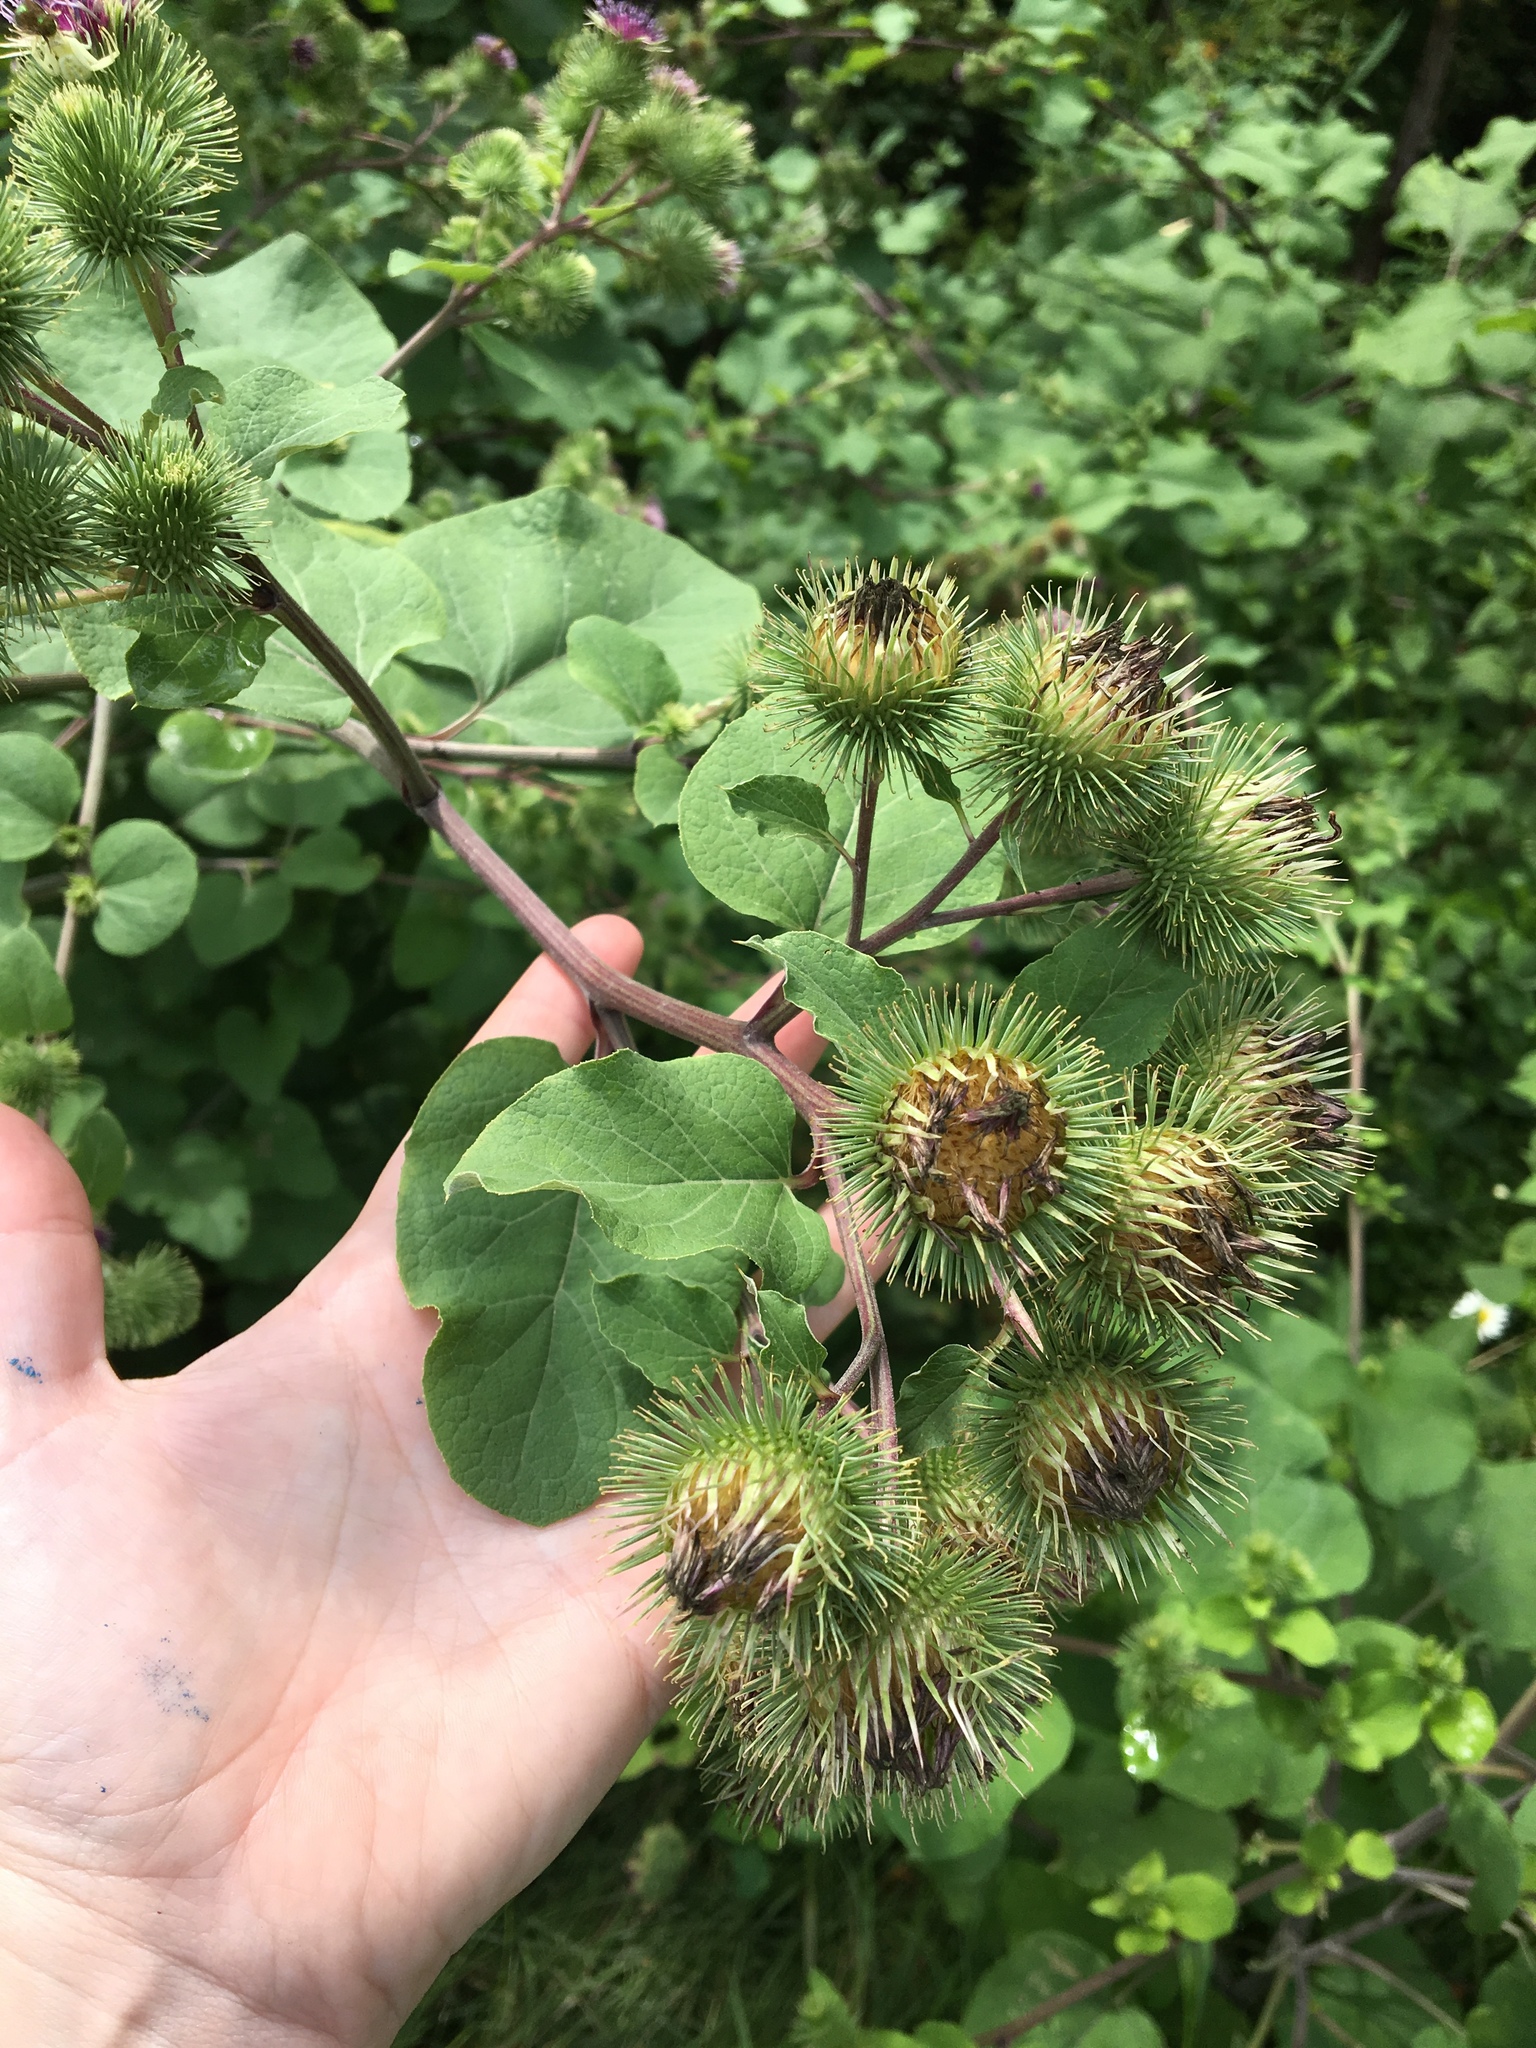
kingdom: Plantae
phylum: Tracheophyta
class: Magnoliopsida
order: Asterales
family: Asteraceae
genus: Arctium
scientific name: Arctium lappa
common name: Greater burdock
